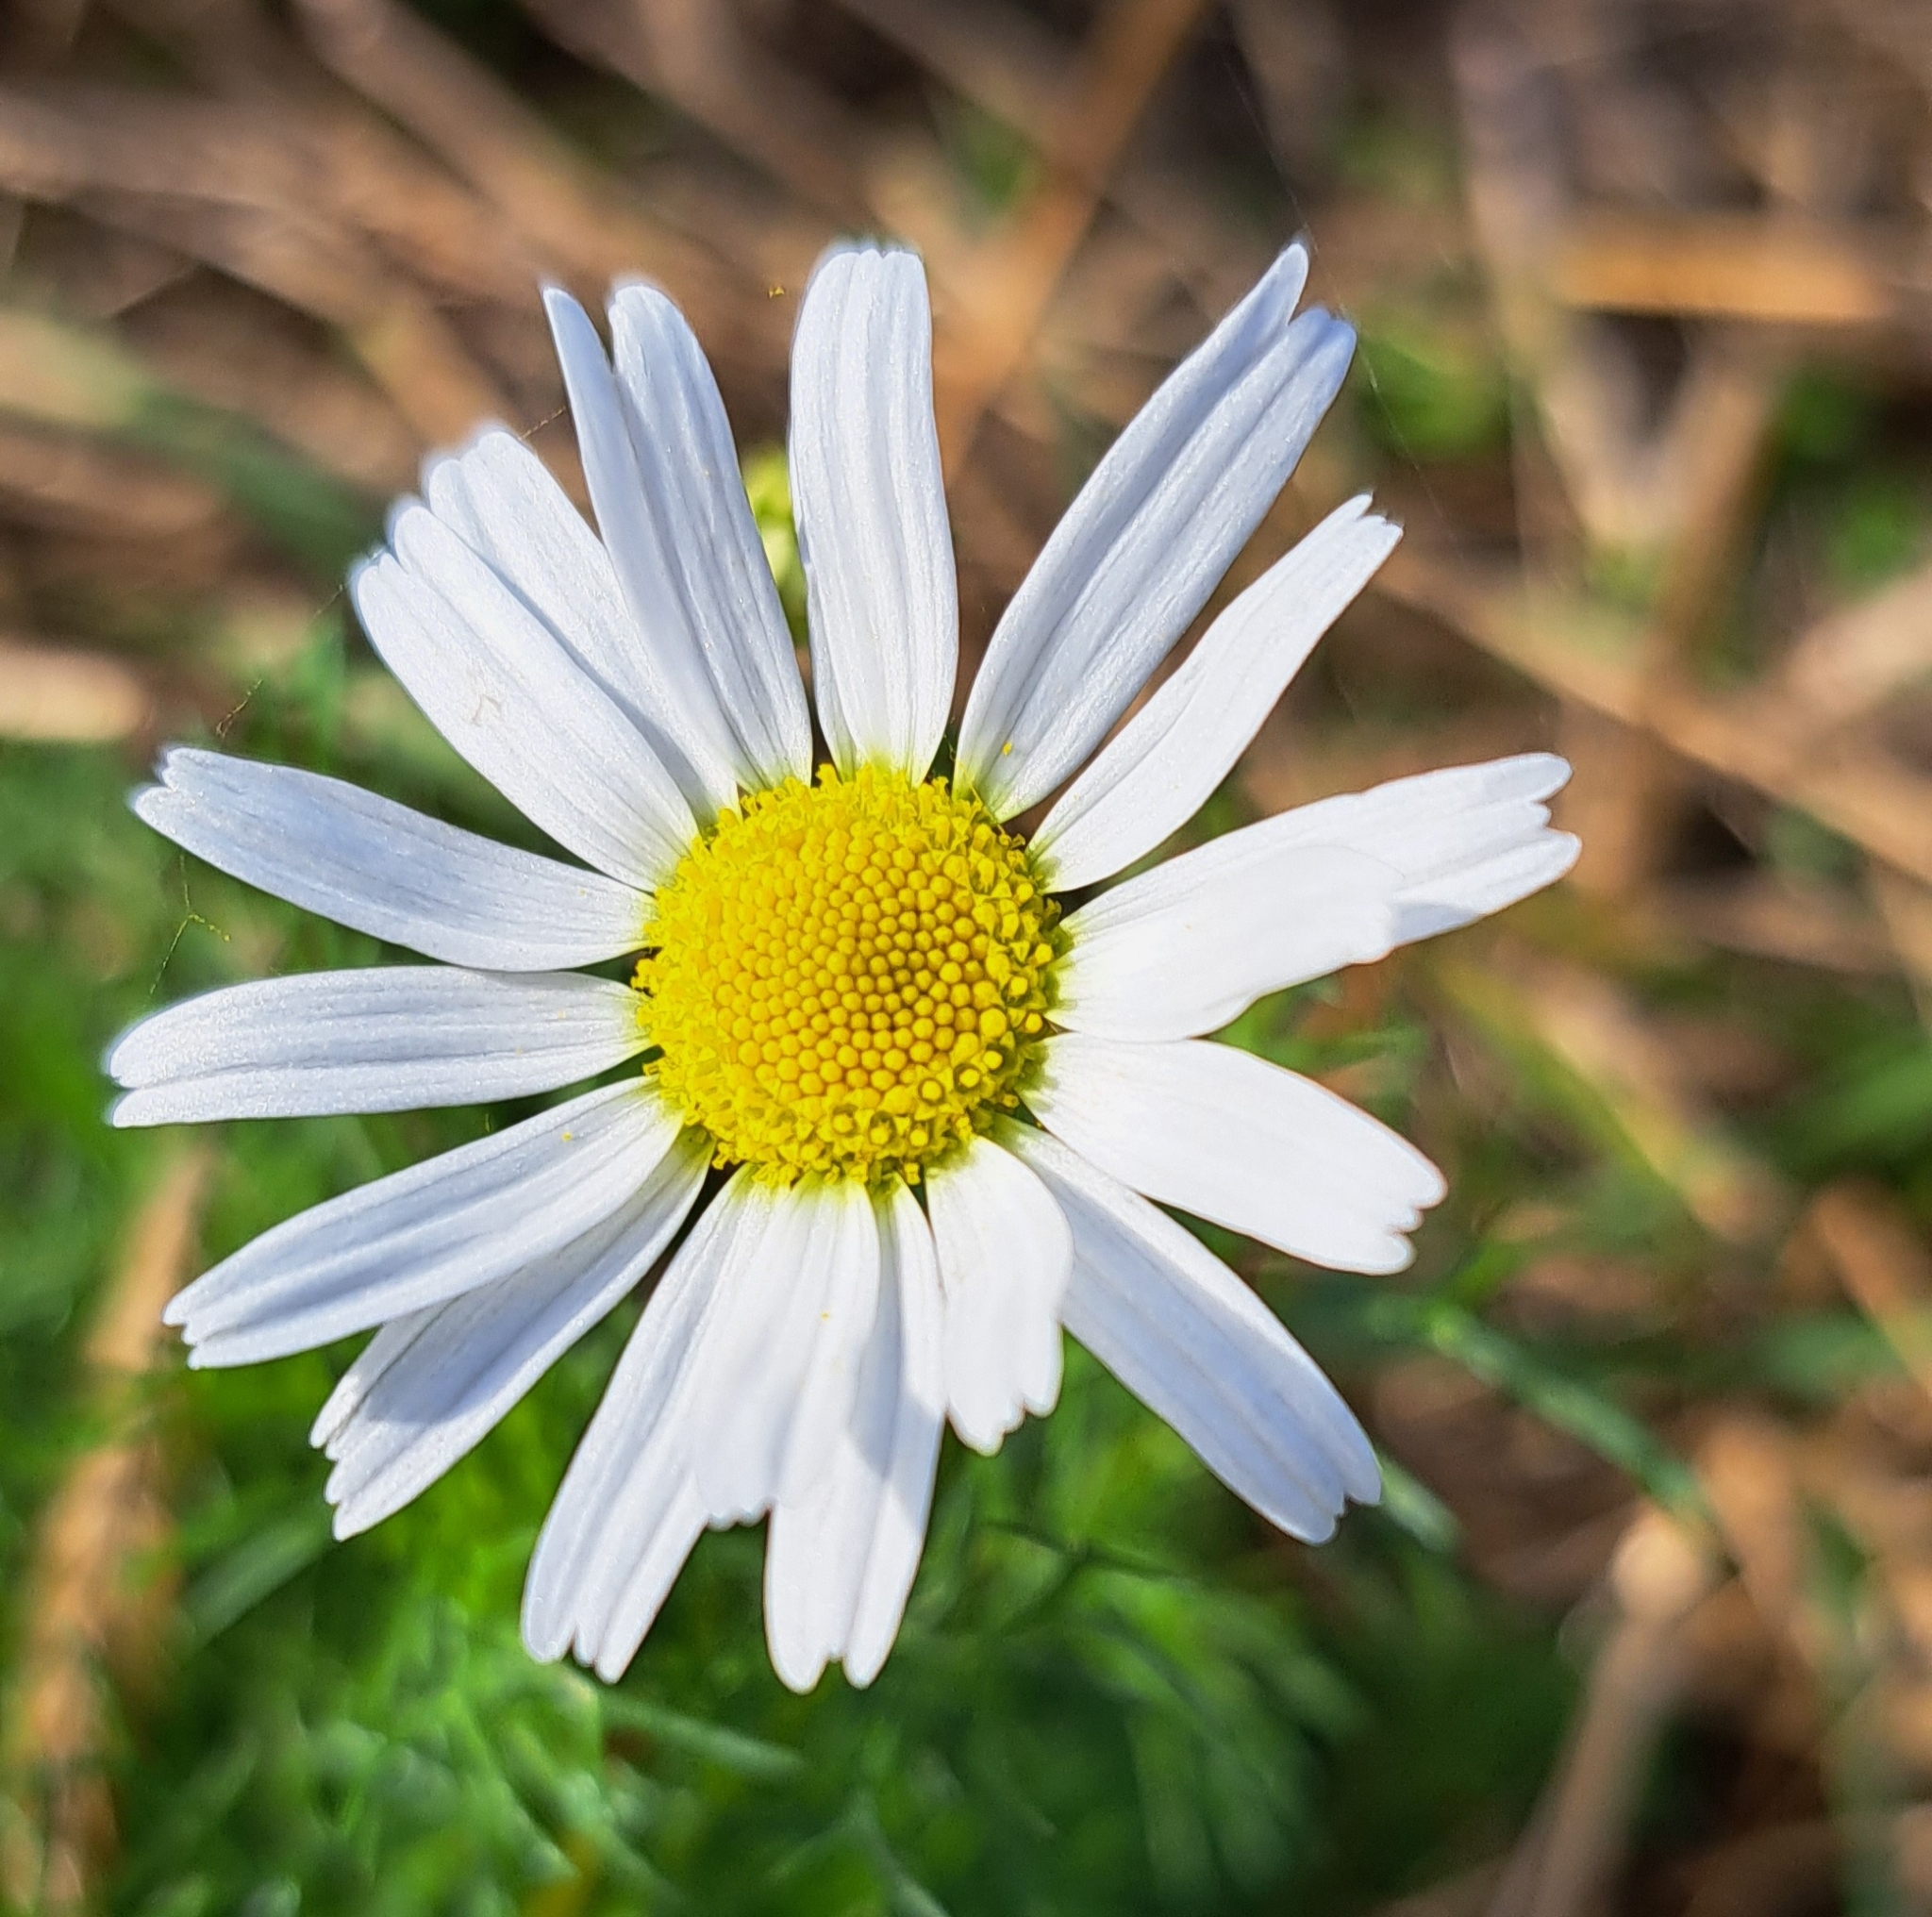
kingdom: Plantae
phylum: Tracheophyta
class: Magnoliopsida
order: Asterales
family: Asteraceae
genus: Tripleurospermum
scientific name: Tripleurospermum inodorum
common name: Scentless mayweed
